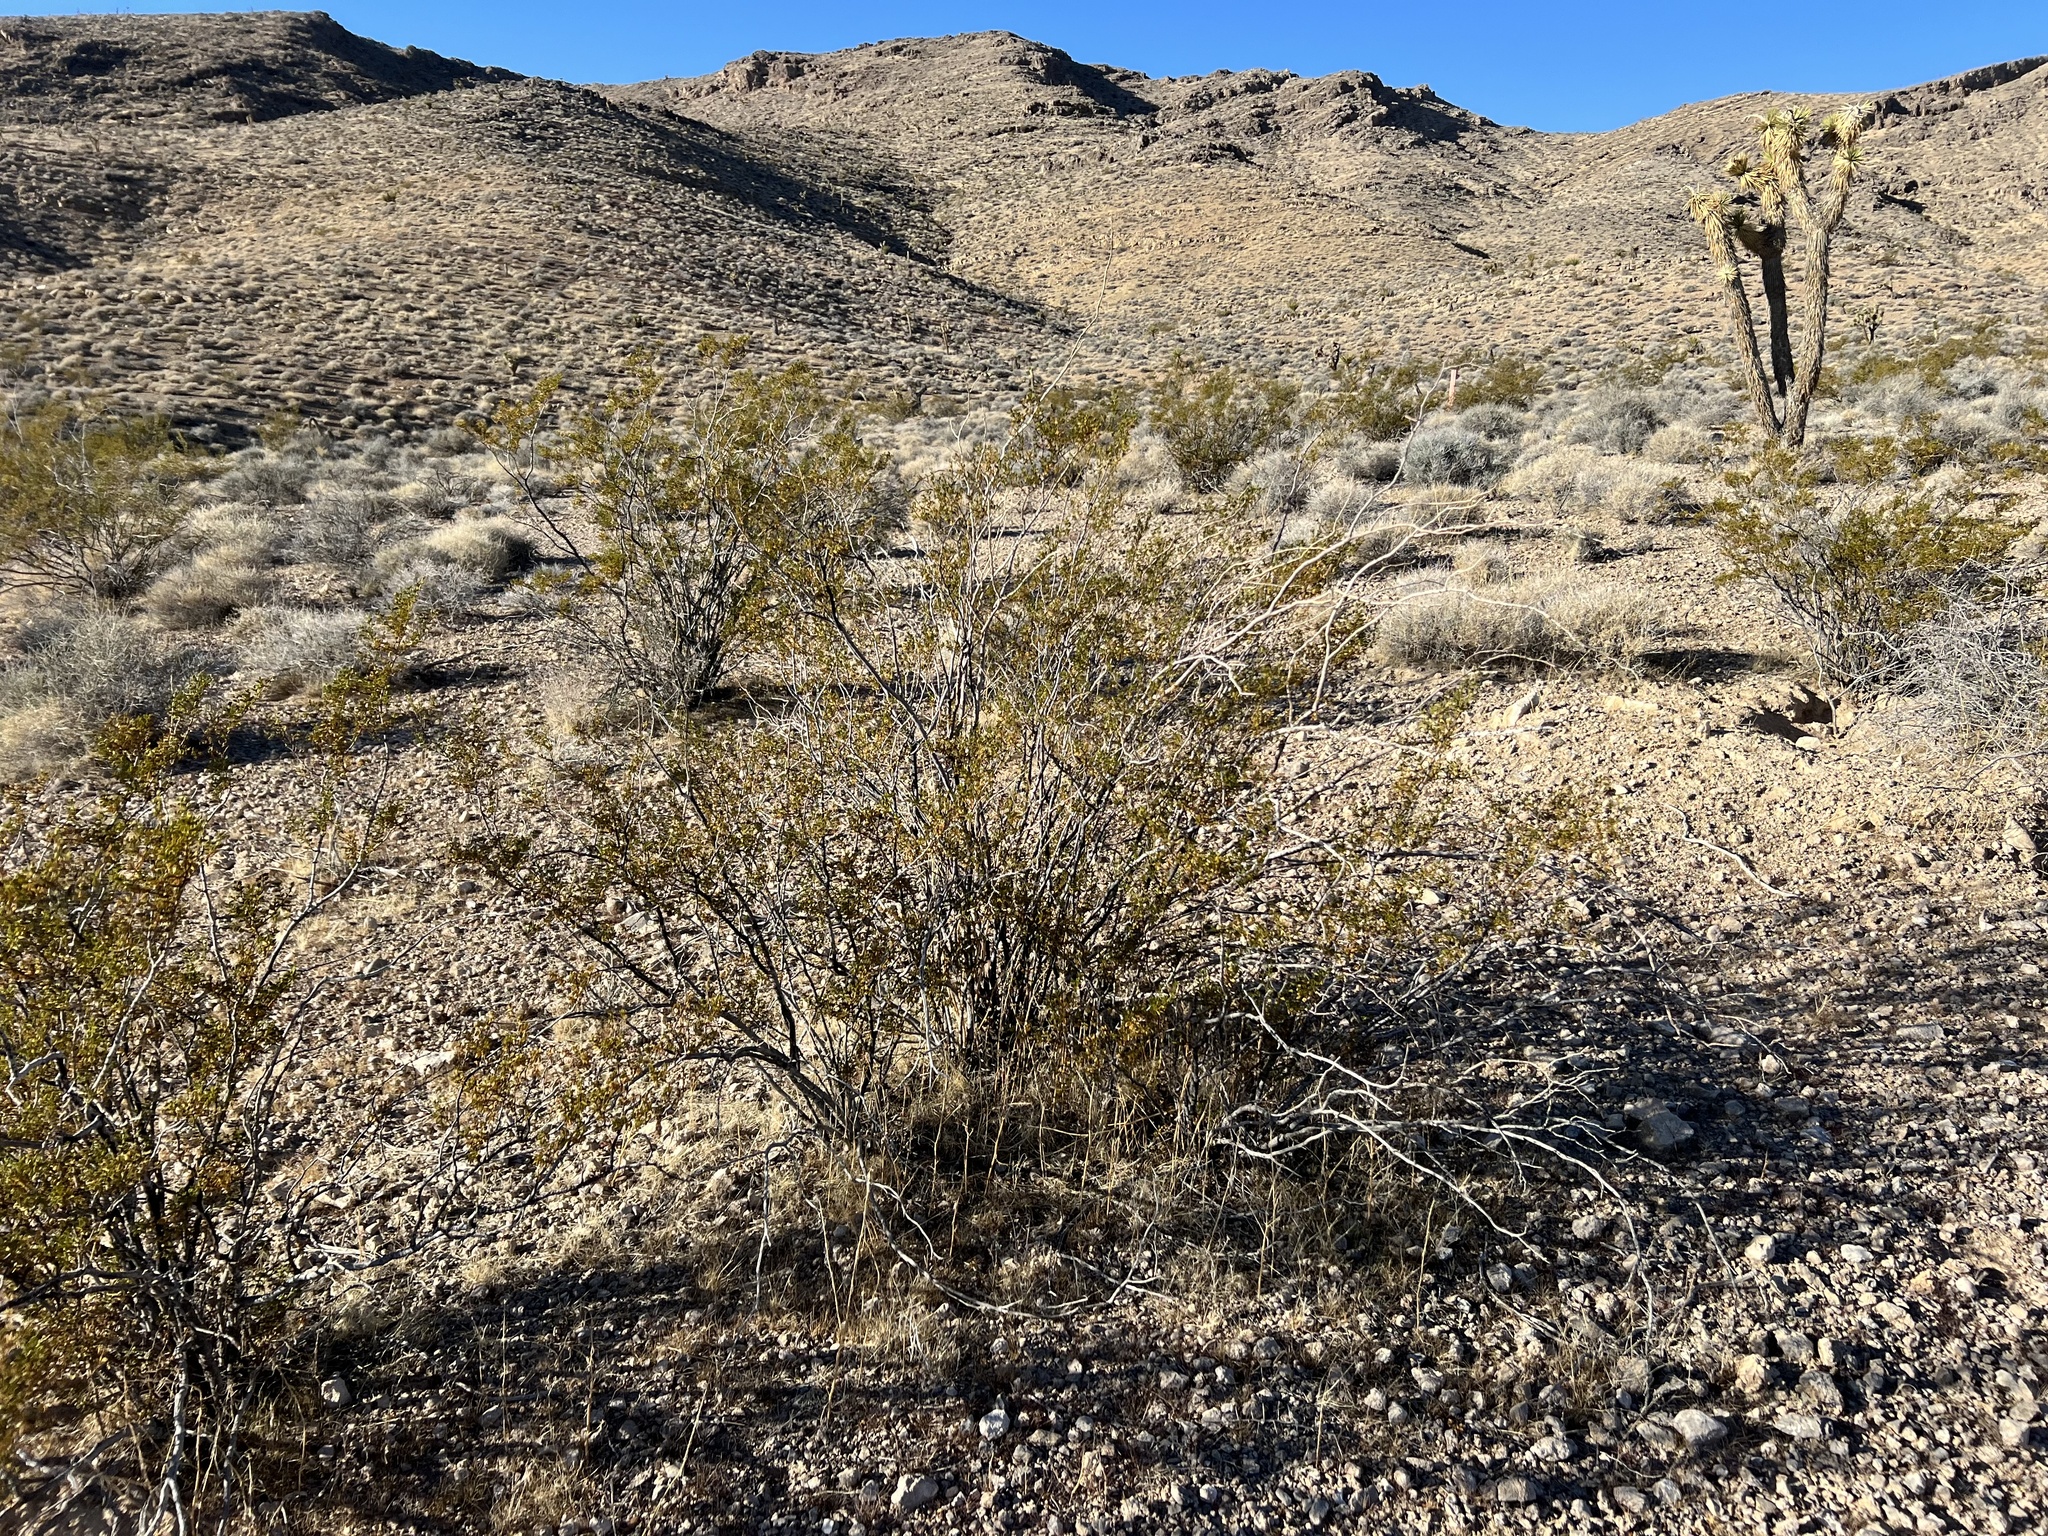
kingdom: Plantae
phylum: Tracheophyta
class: Magnoliopsida
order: Zygophyllales
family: Zygophyllaceae
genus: Larrea
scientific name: Larrea tridentata
